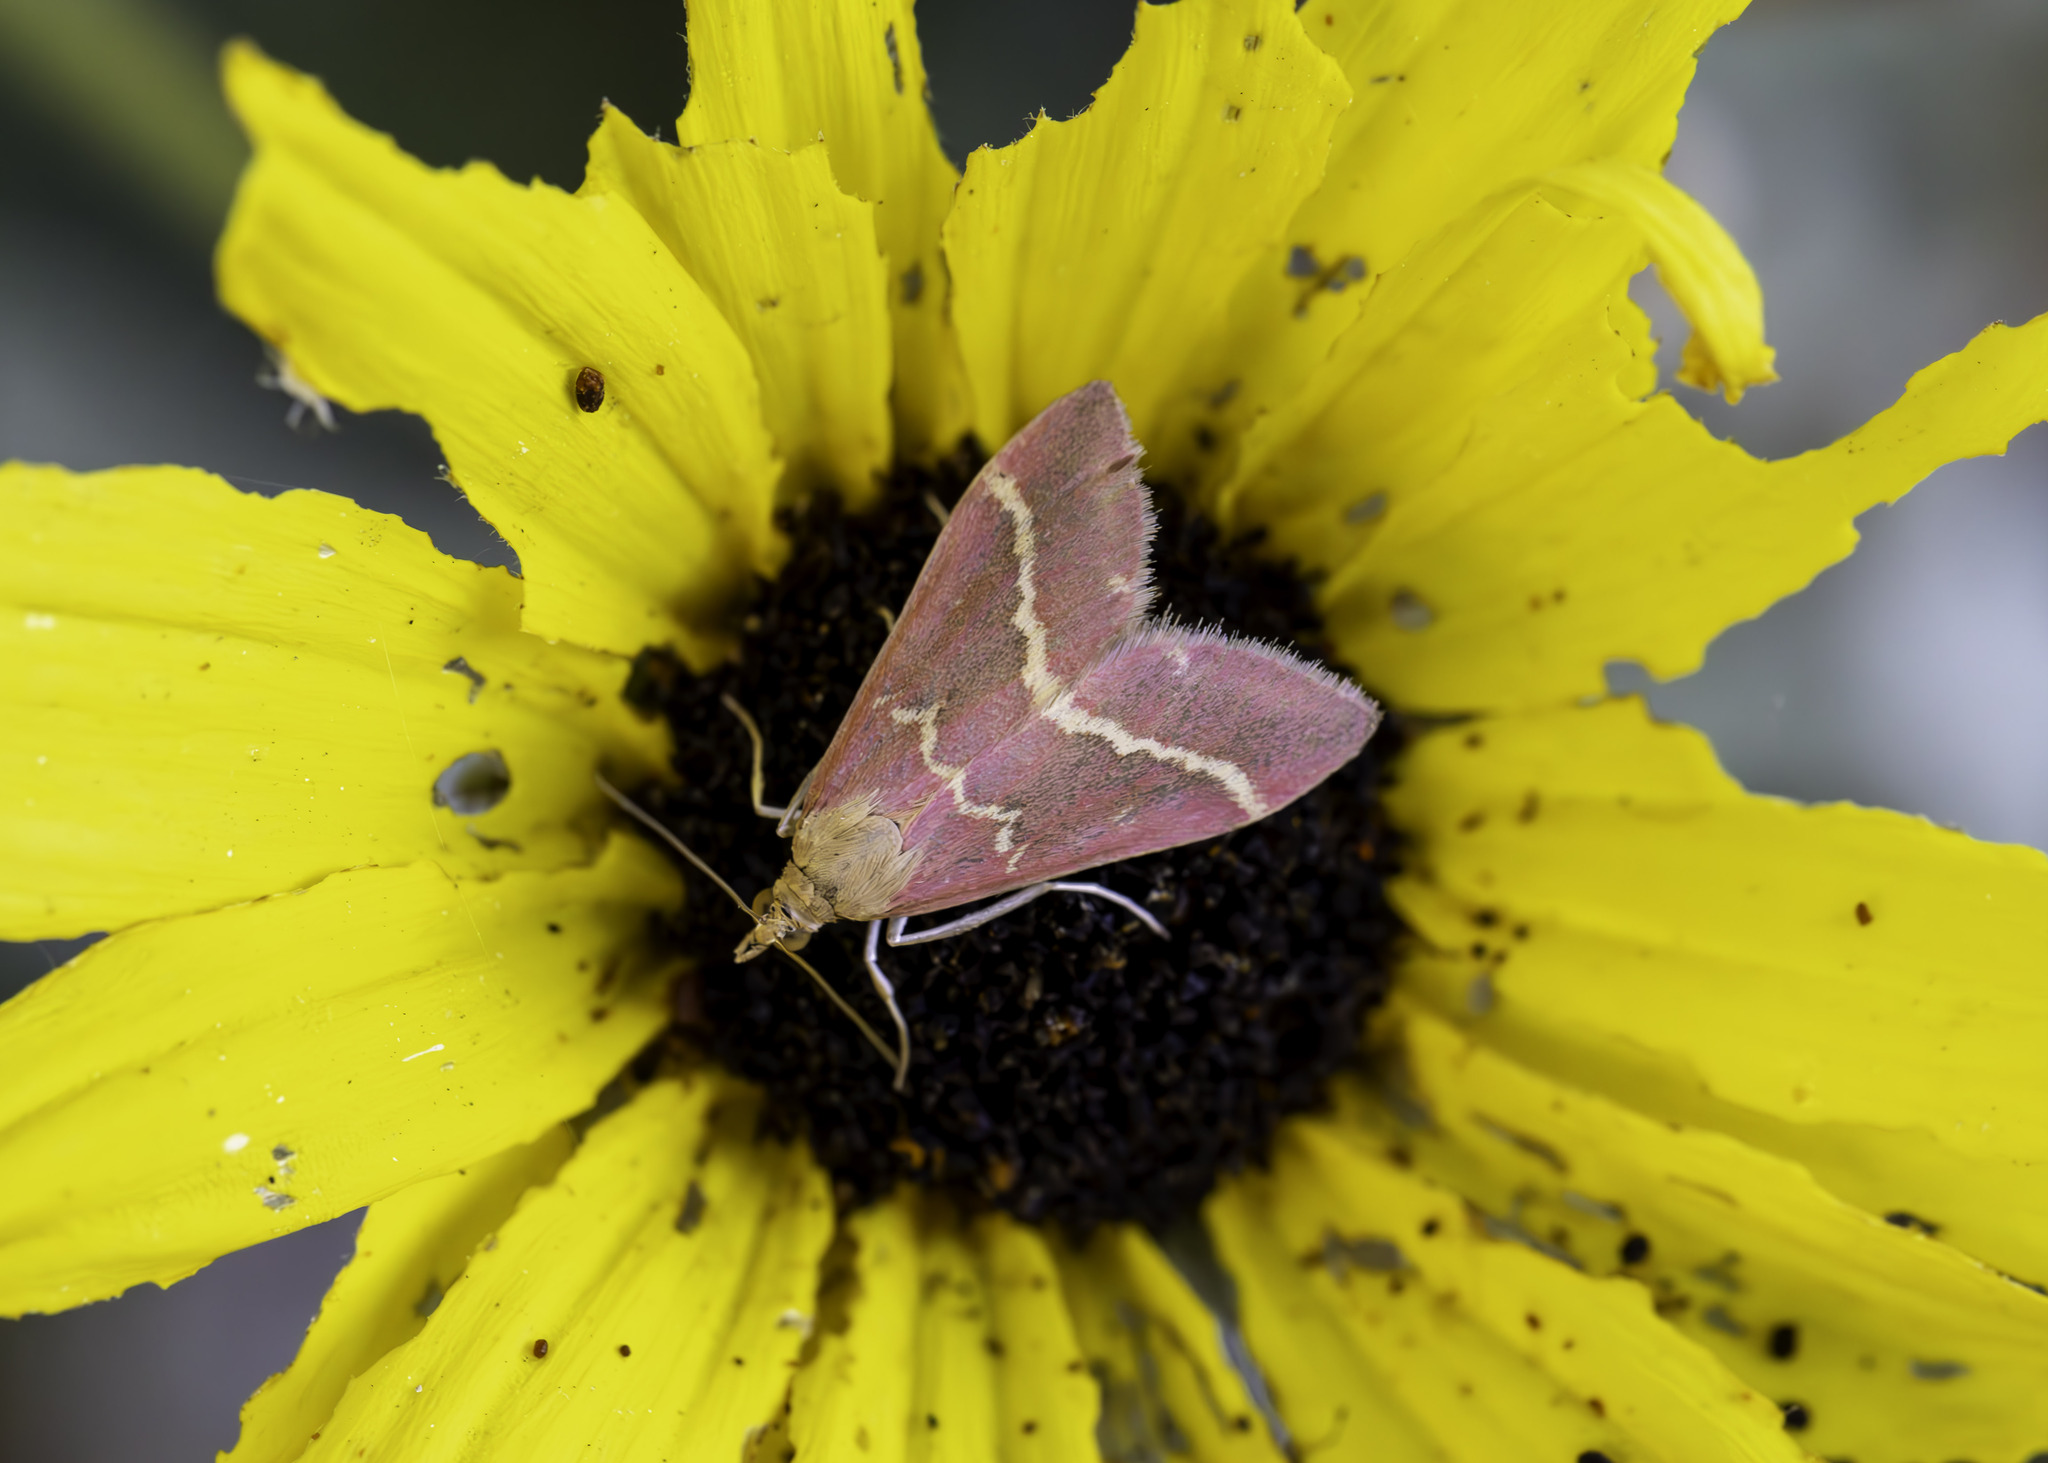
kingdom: Animalia
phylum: Arthropoda
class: Insecta
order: Lepidoptera
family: Crambidae
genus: Pyrausta
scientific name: Pyrausta volupialis
